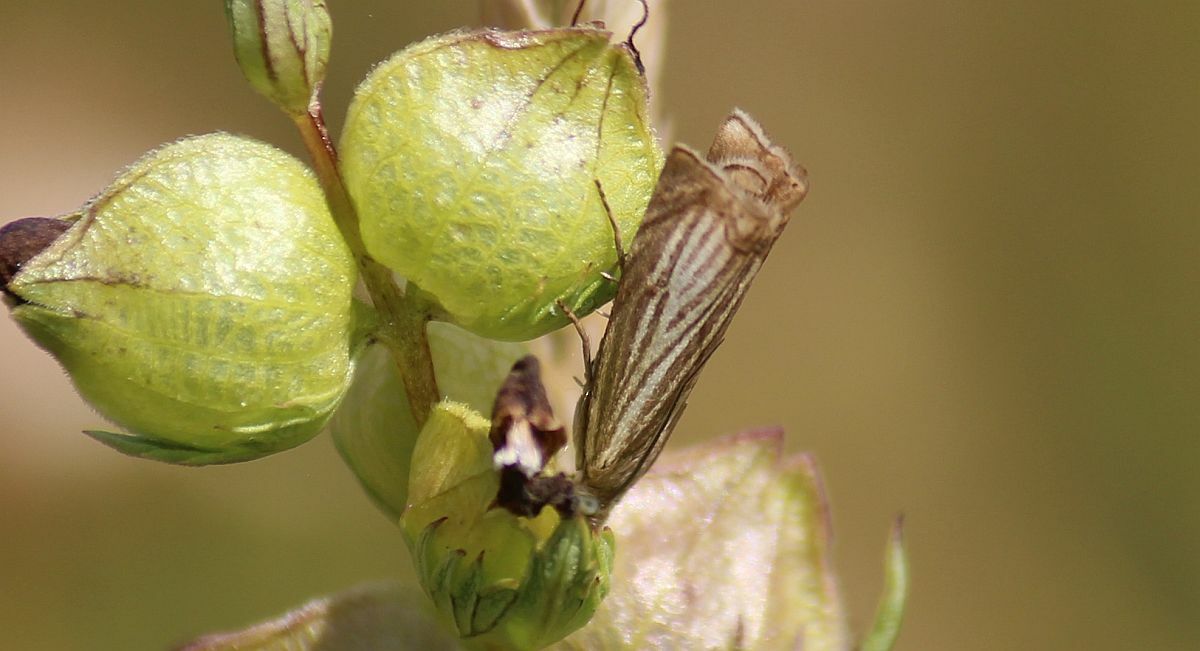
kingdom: Animalia
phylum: Arthropoda
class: Insecta
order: Lepidoptera
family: Crambidae
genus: Chrysoteuchia
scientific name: Chrysoteuchia culmella
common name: Garden grass-veneer
